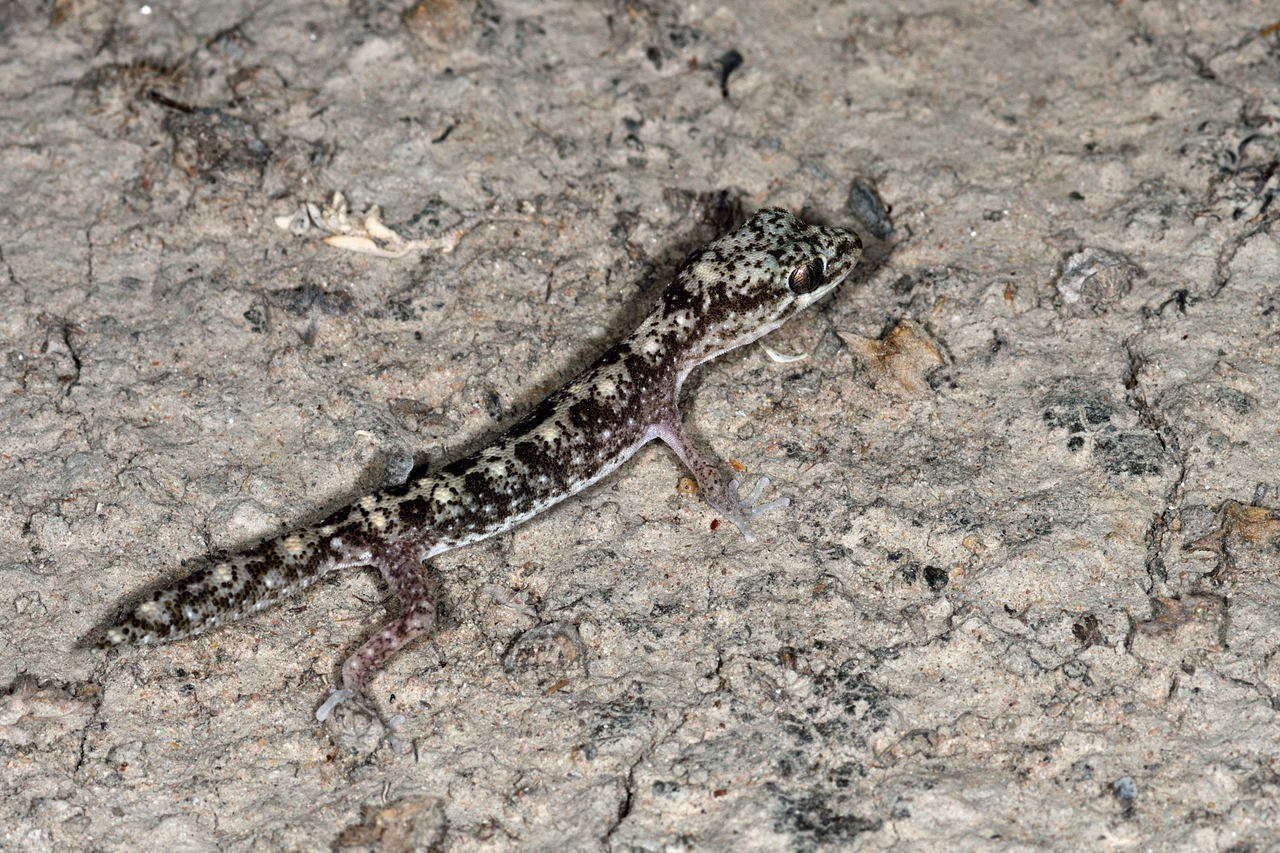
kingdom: Animalia
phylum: Chordata
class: Squamata
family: Diplodactylidae
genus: Diplodactylus
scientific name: Diplodactylus tessellatus
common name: Tesselated gecko
